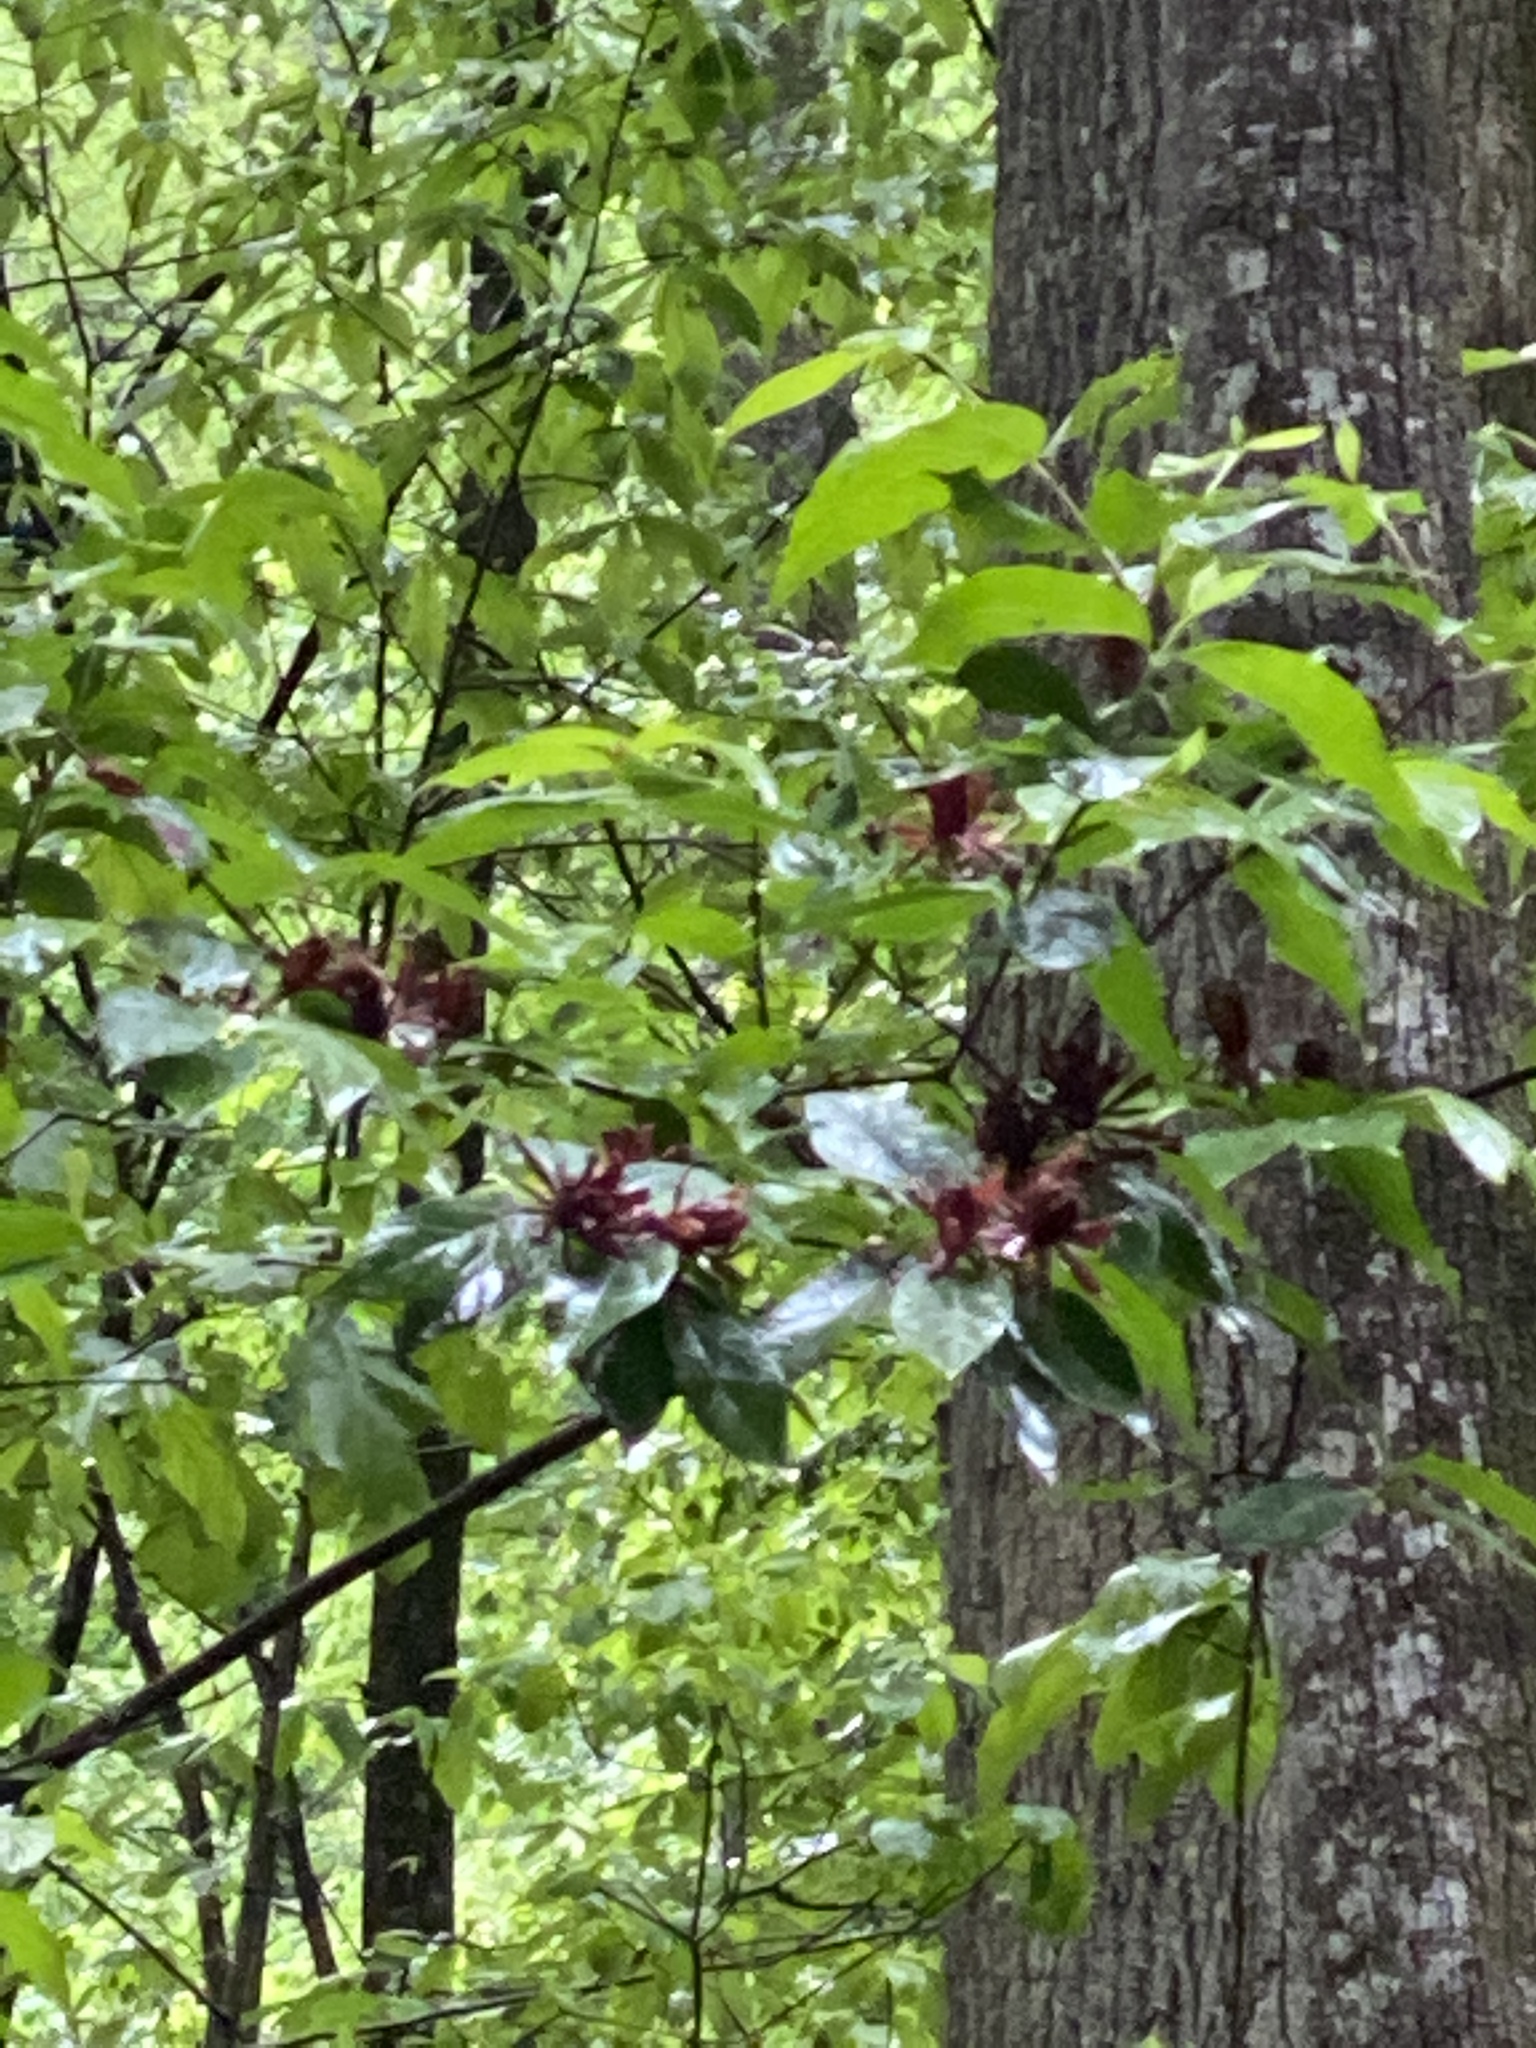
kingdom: Plantae
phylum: Tracheophyta
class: Magnoliopsida
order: Laurales
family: Calycanthaceae
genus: Calycanthus
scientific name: Calycanthus floridus
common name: Carolina-allspice
